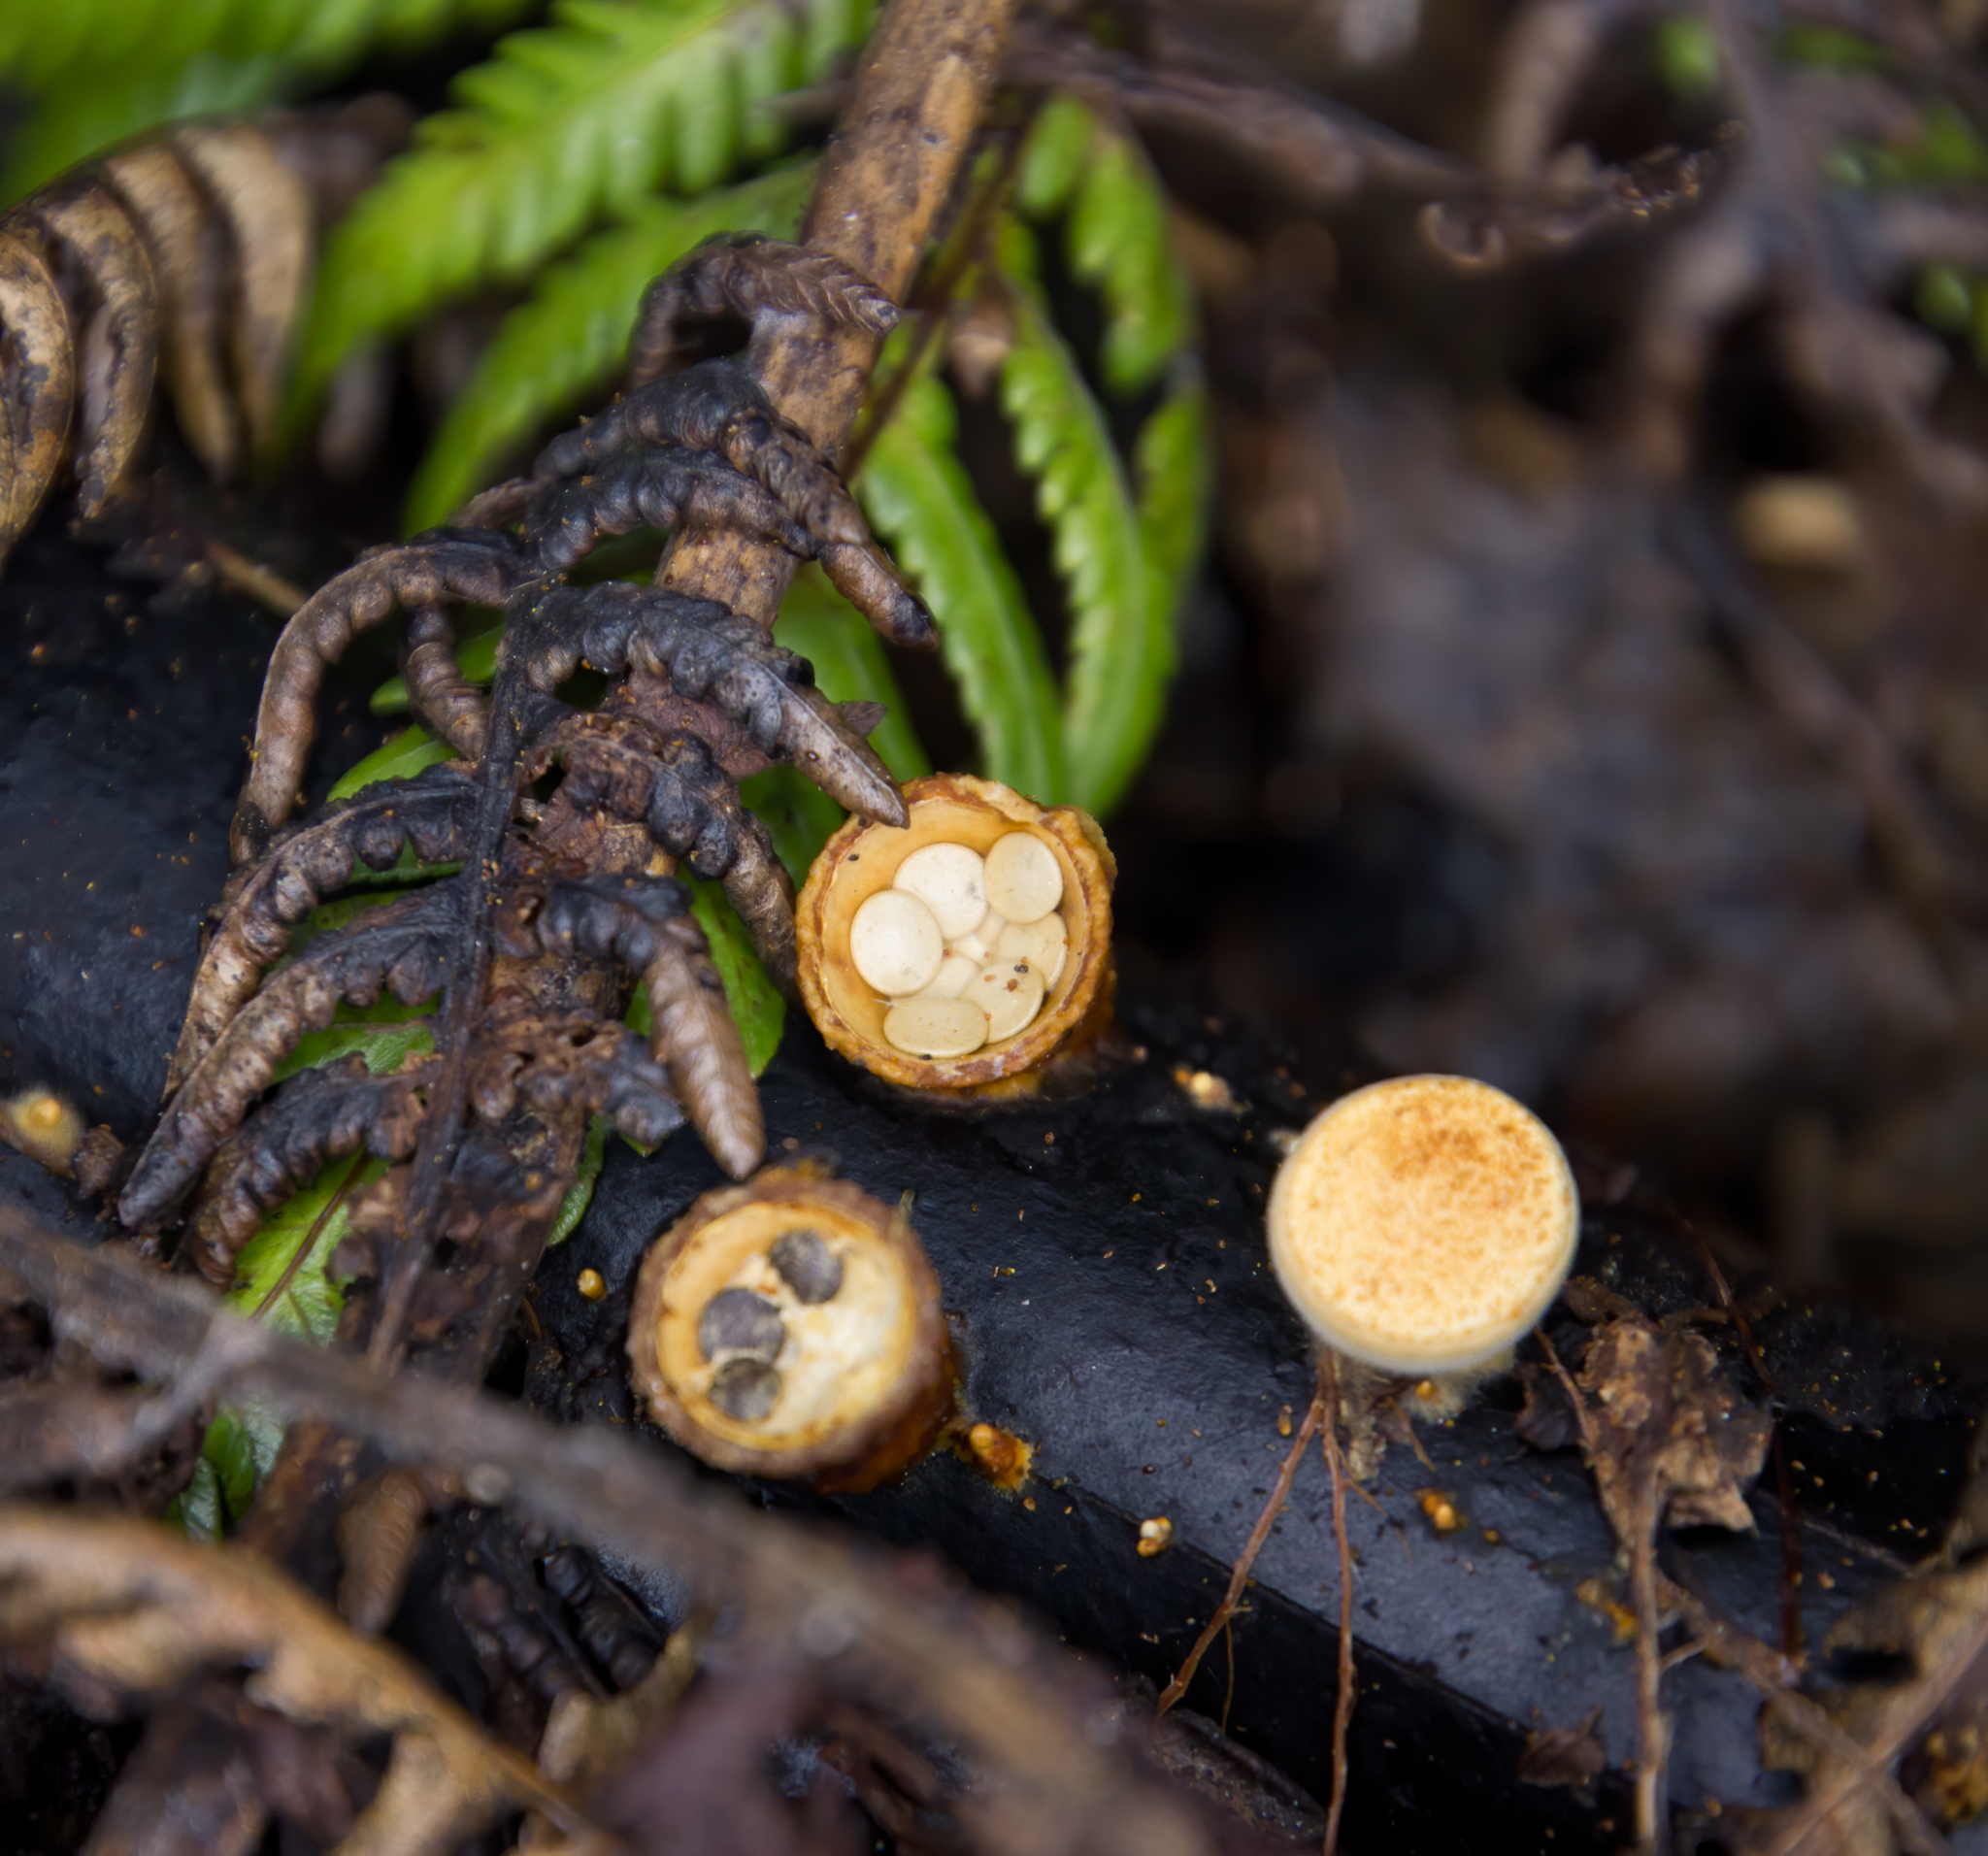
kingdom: Fungi
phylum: Basidiomycota
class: Agaricomycetes
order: Agaricales
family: Nidulariaceae
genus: Crucibulum
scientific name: Crucibulum simile
